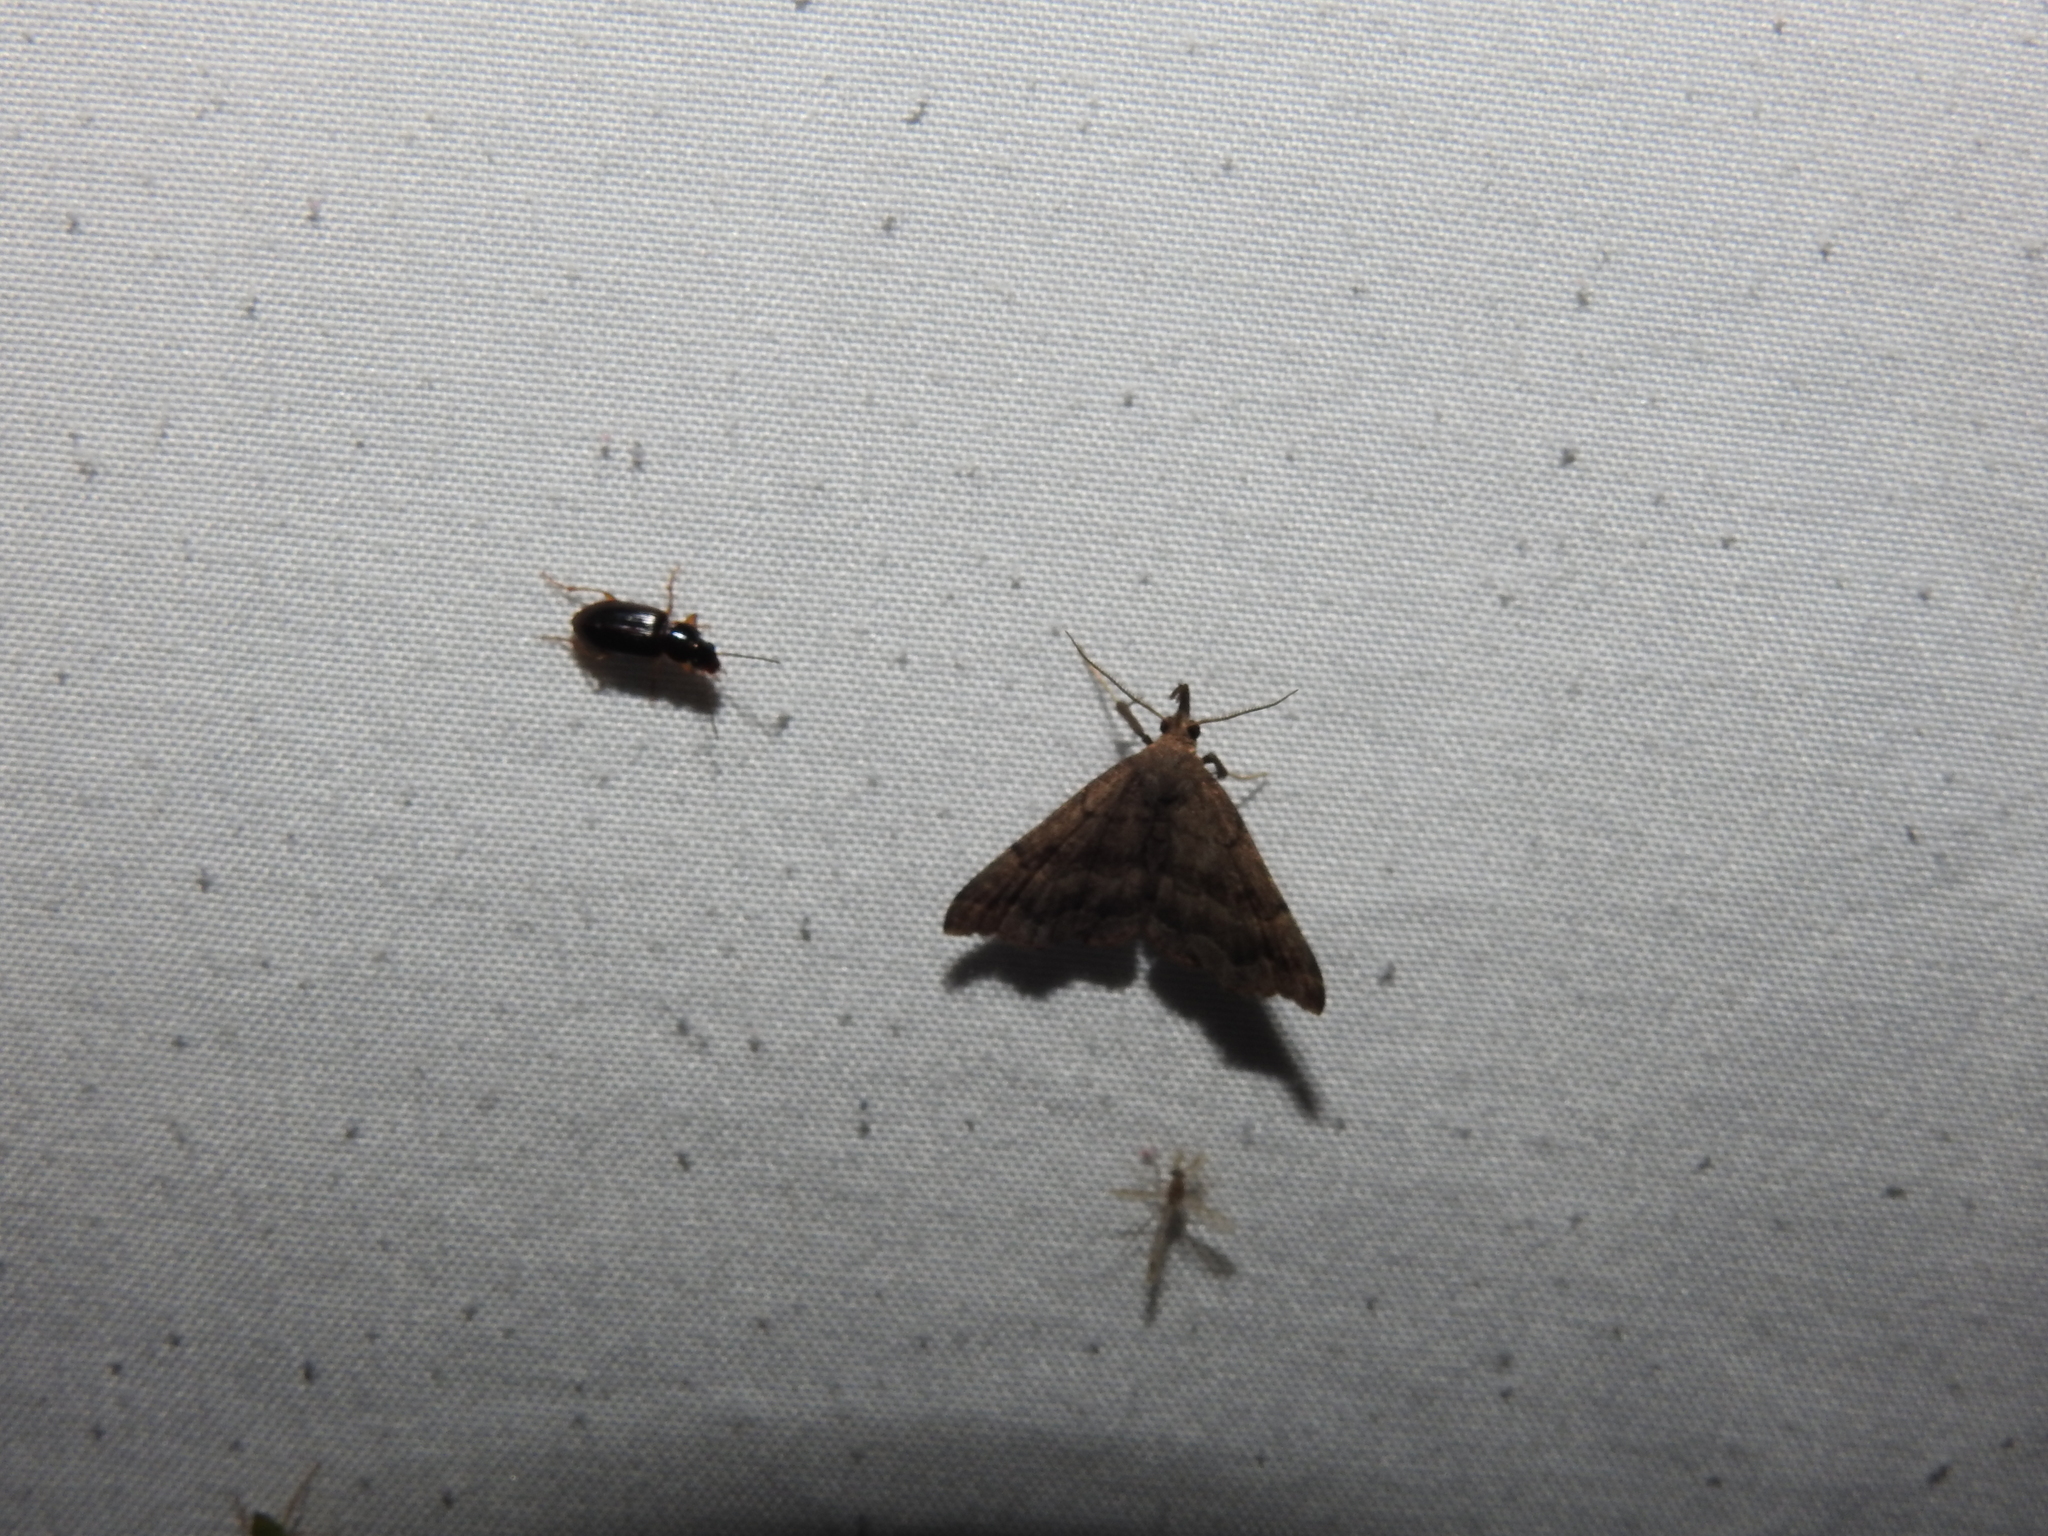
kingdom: Animalia
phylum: Arthropoda
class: Insecta
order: Lepidoptera
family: Erebidae
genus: Phalaenostola
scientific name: Phalaenostola larentioides
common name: Black-banded owlet
